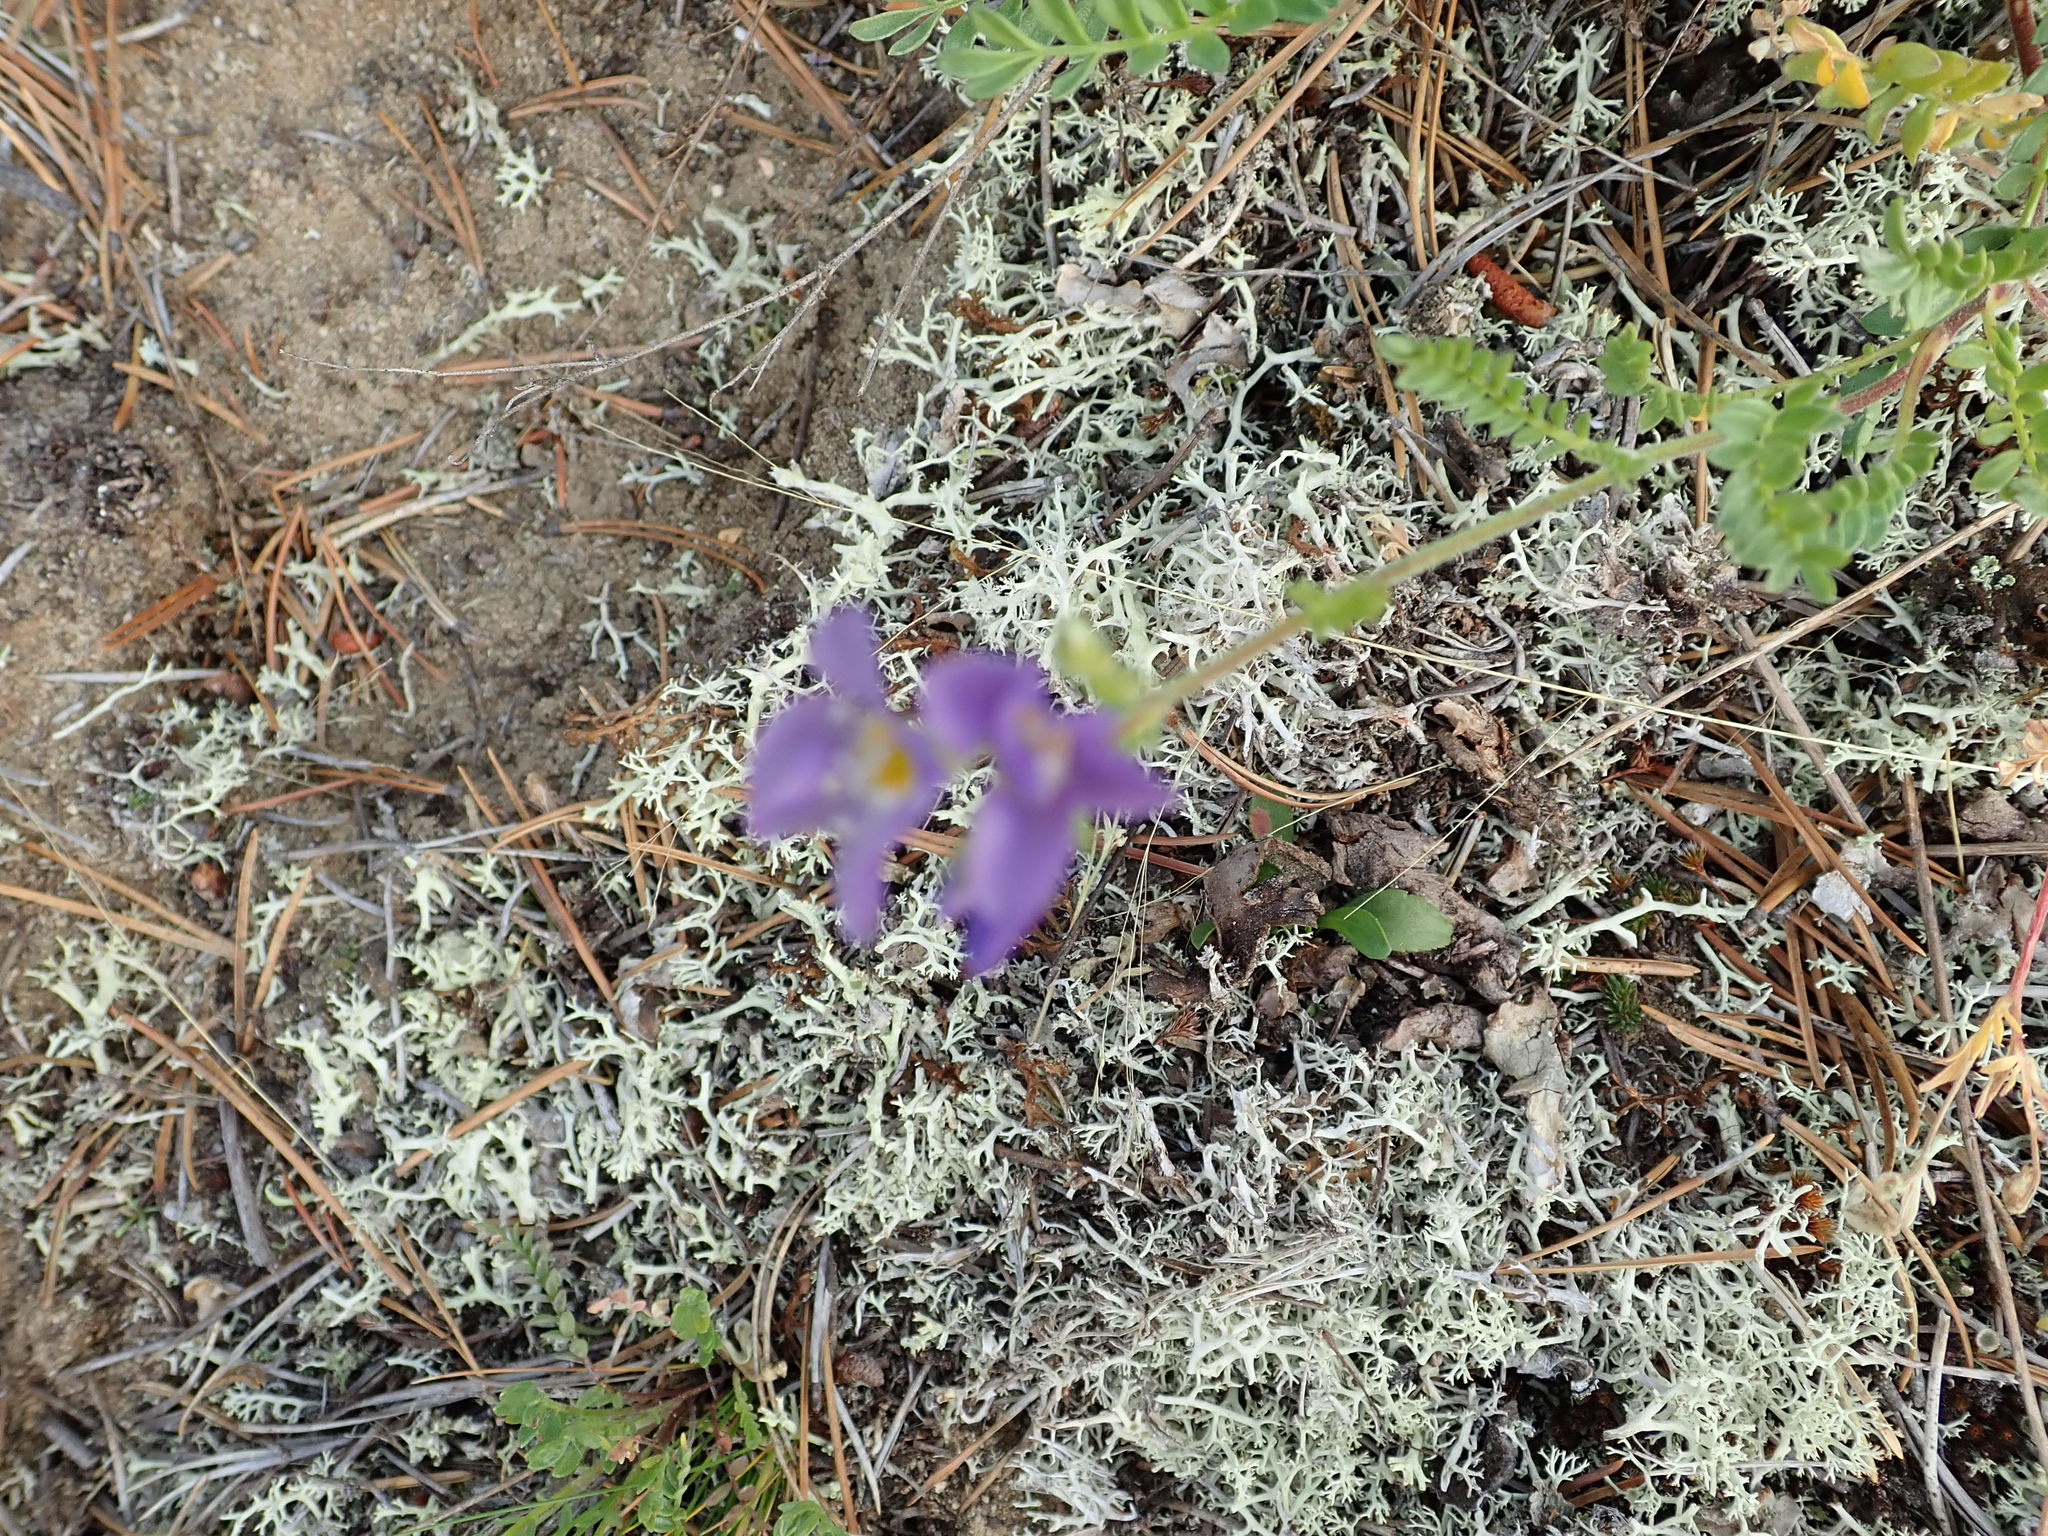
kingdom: Plantae
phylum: Tracheophyta
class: Magnoliopsida
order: Ericales
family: Polemoniaceae
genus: Polemonium
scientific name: Polemonium pulcherrimum
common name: Short jacob's-ladder
